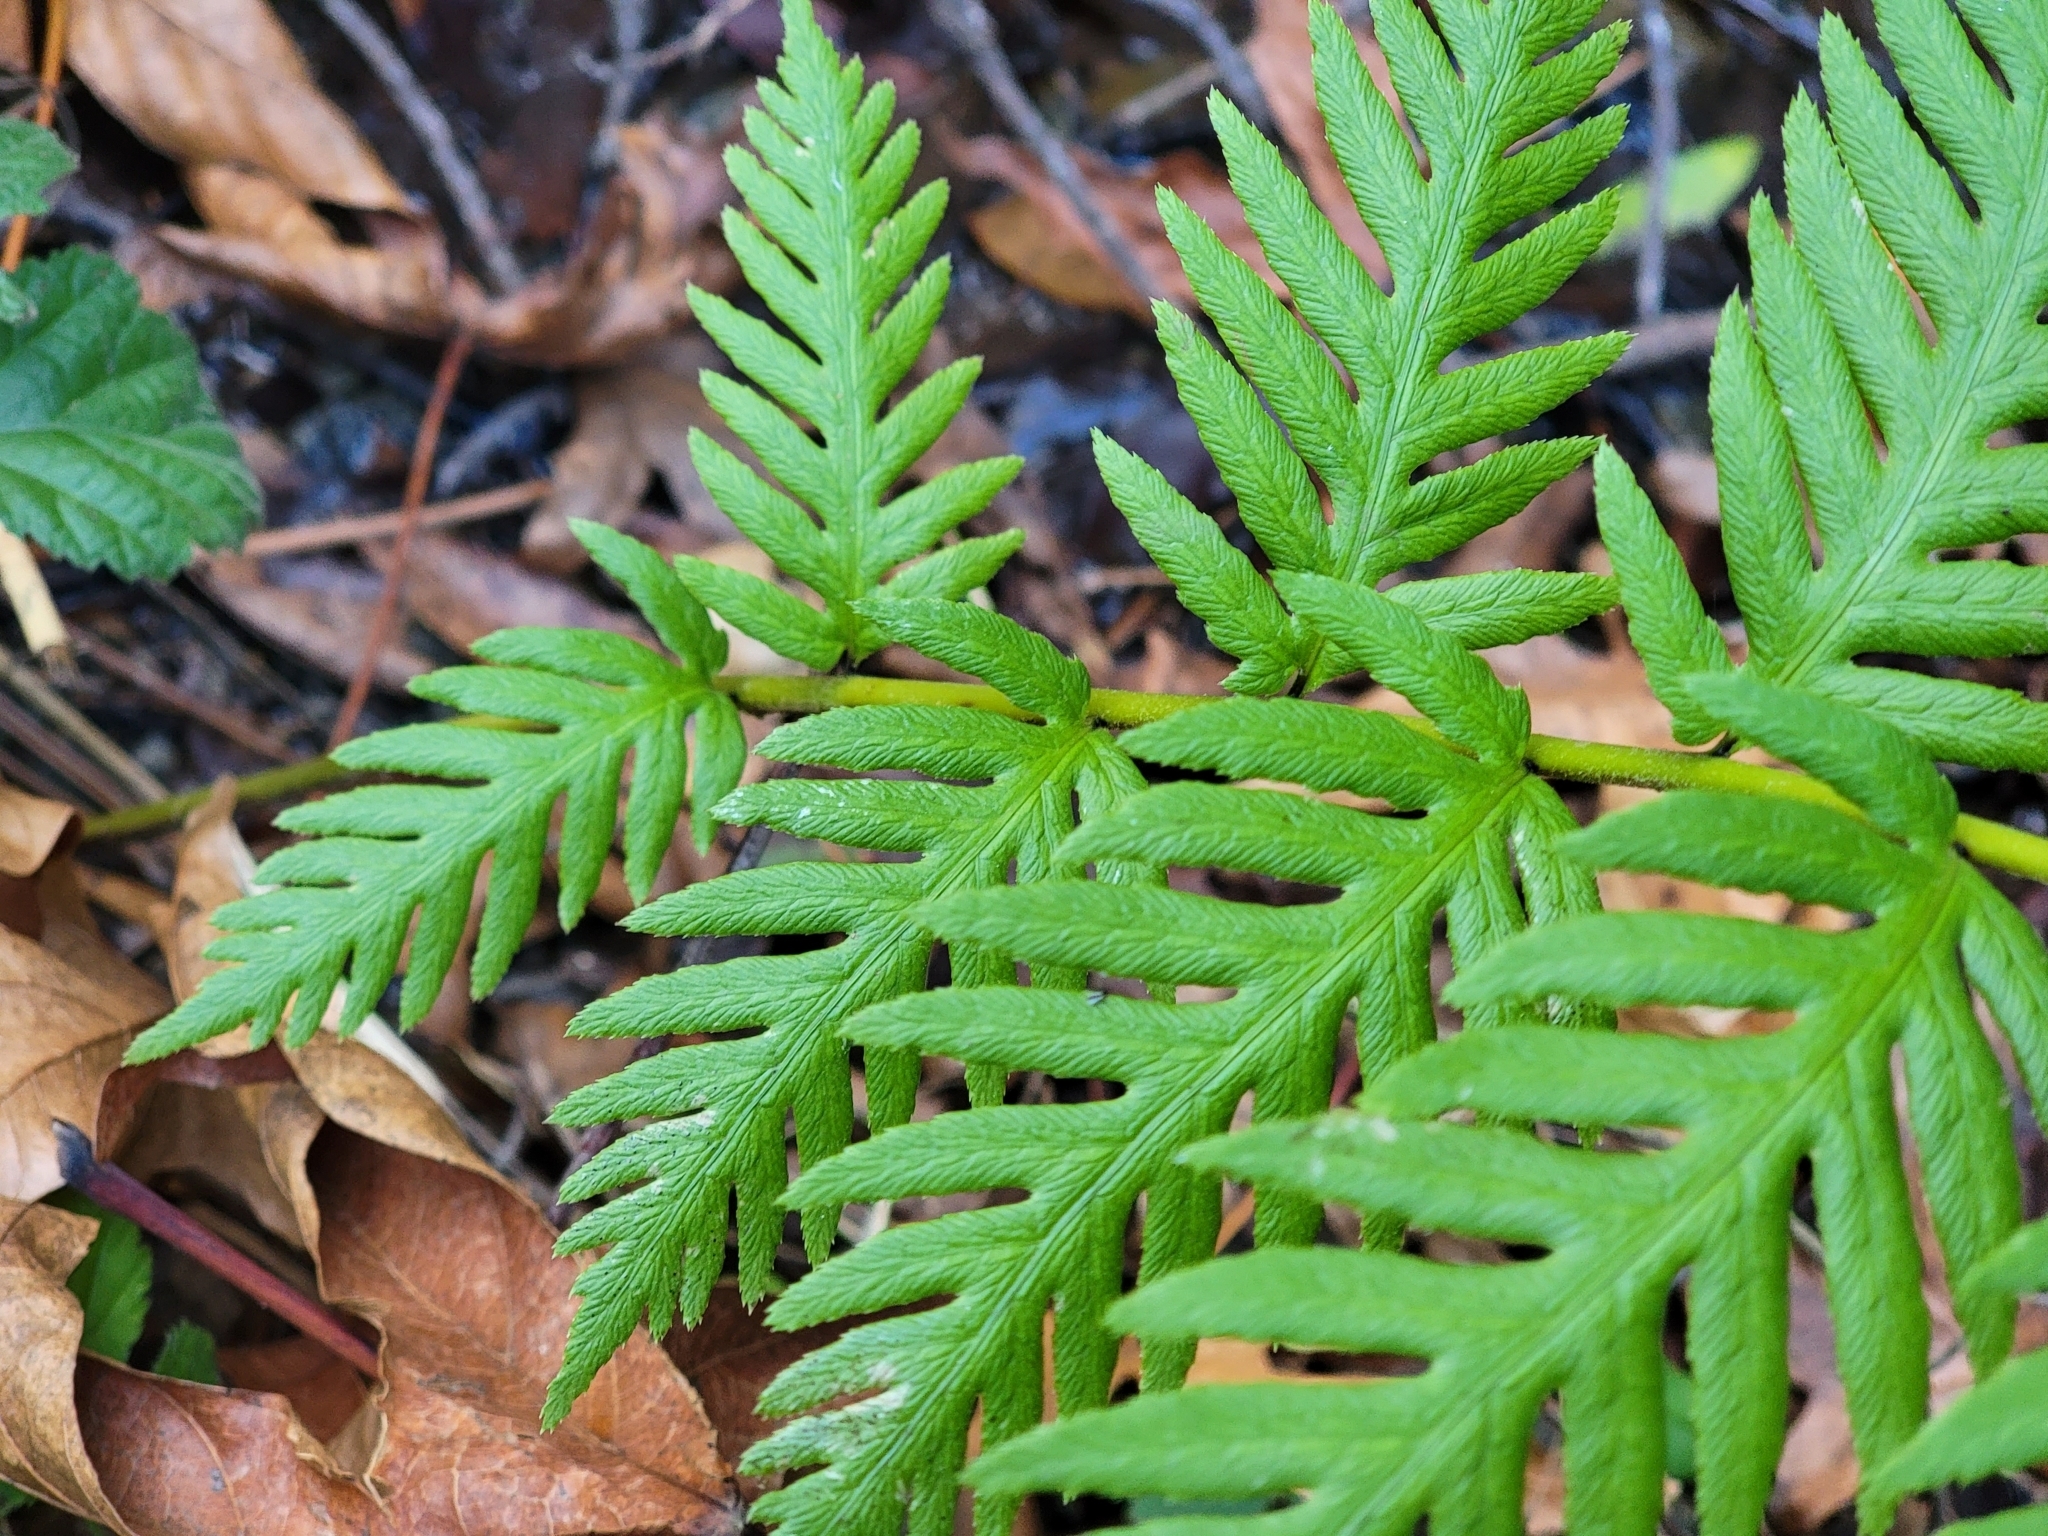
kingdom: Plantae
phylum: Tracheophyta
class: Polypodiopsida
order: Polypodiales
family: Blechnaceae
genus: Woodwardia
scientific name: Woodwardia fimbriata
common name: Giant chain fern
